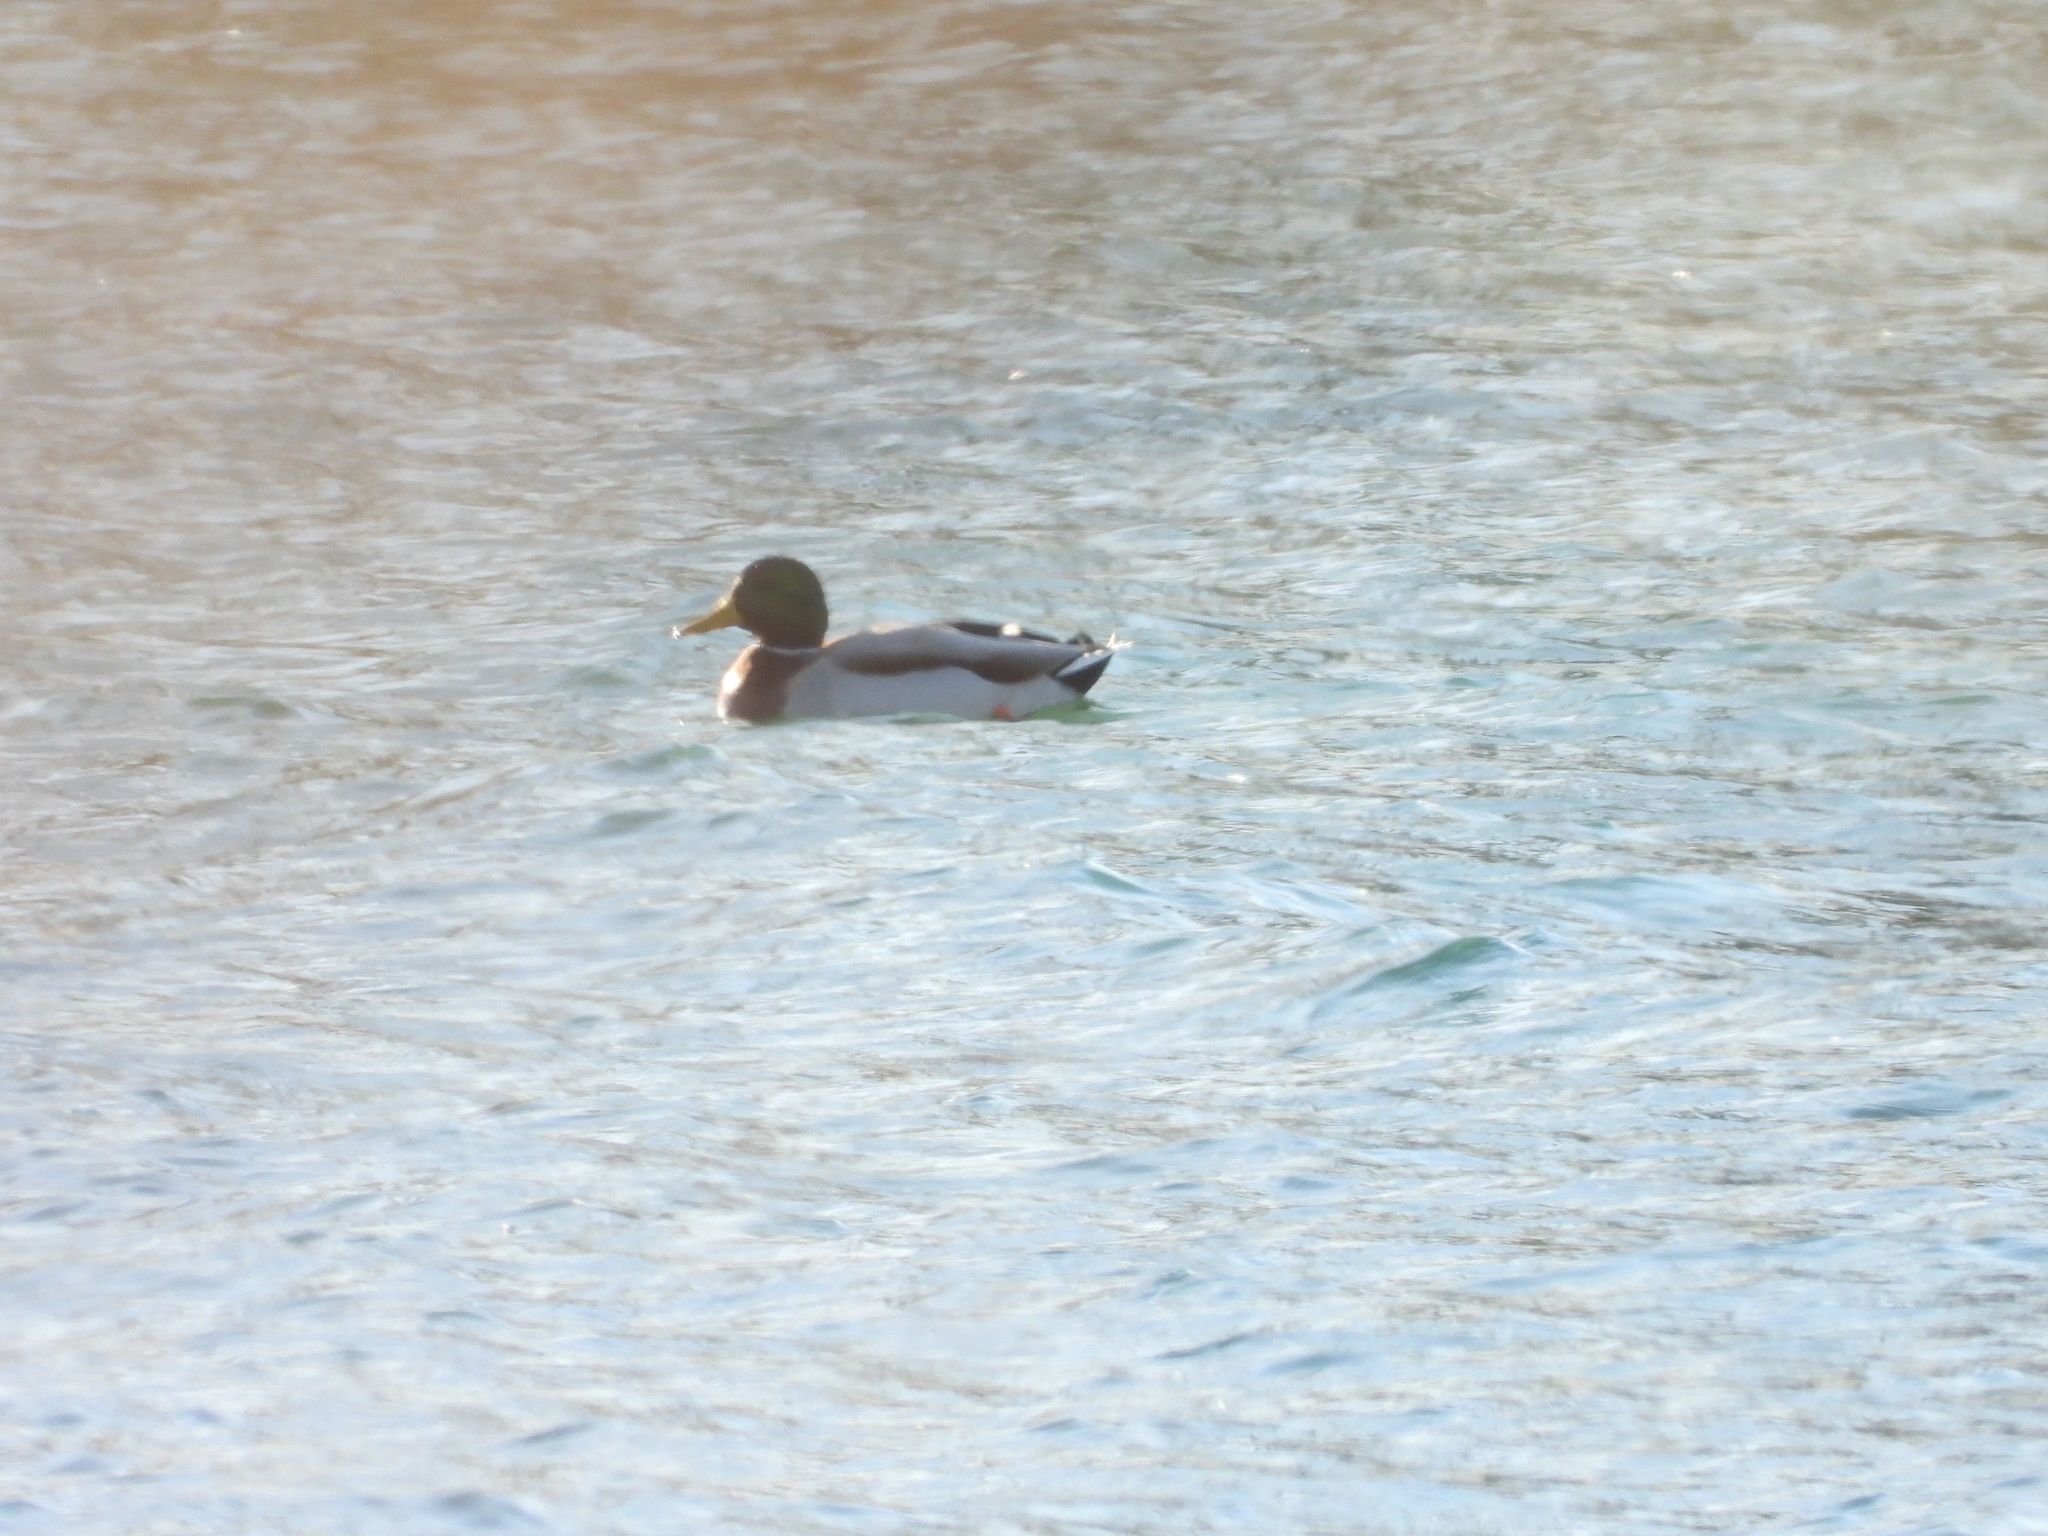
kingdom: Animalia
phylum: Chordata
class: Aves
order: Anseriformes
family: Anatidae
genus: Anas
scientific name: Anas platyrhynchos
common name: Mallard
